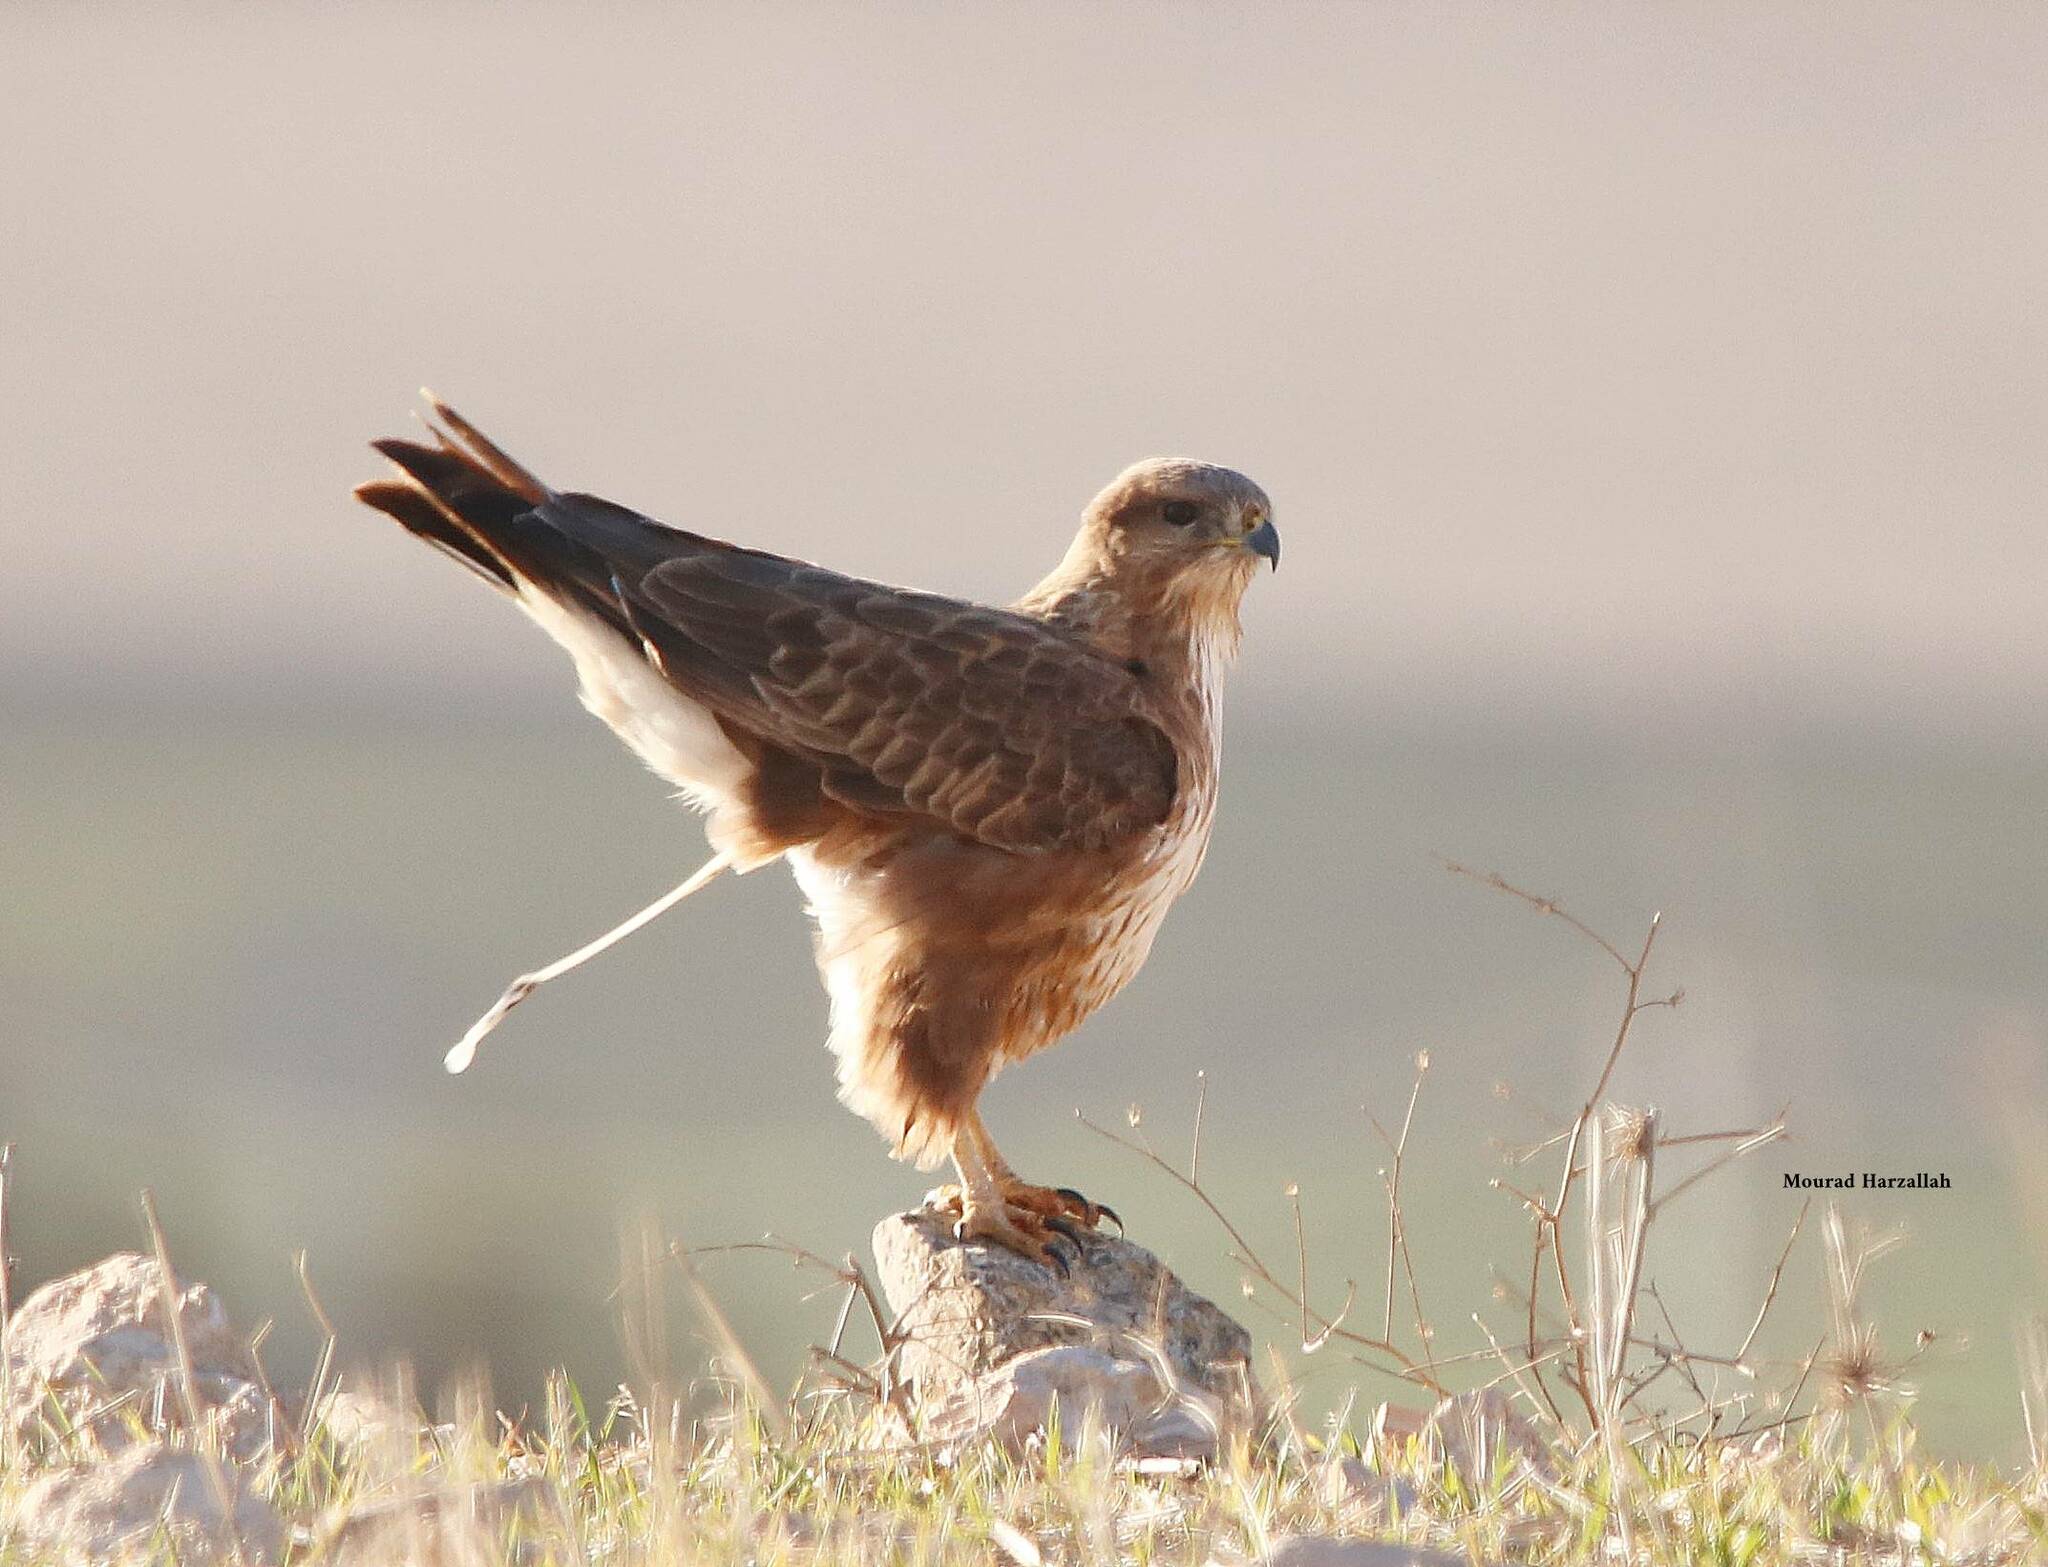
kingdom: Animalia
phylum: Chordata
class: Aves
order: Accipitriformes
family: Accipitridae
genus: Buteo
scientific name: Buteo rufinus
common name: Long-legged buzzard
